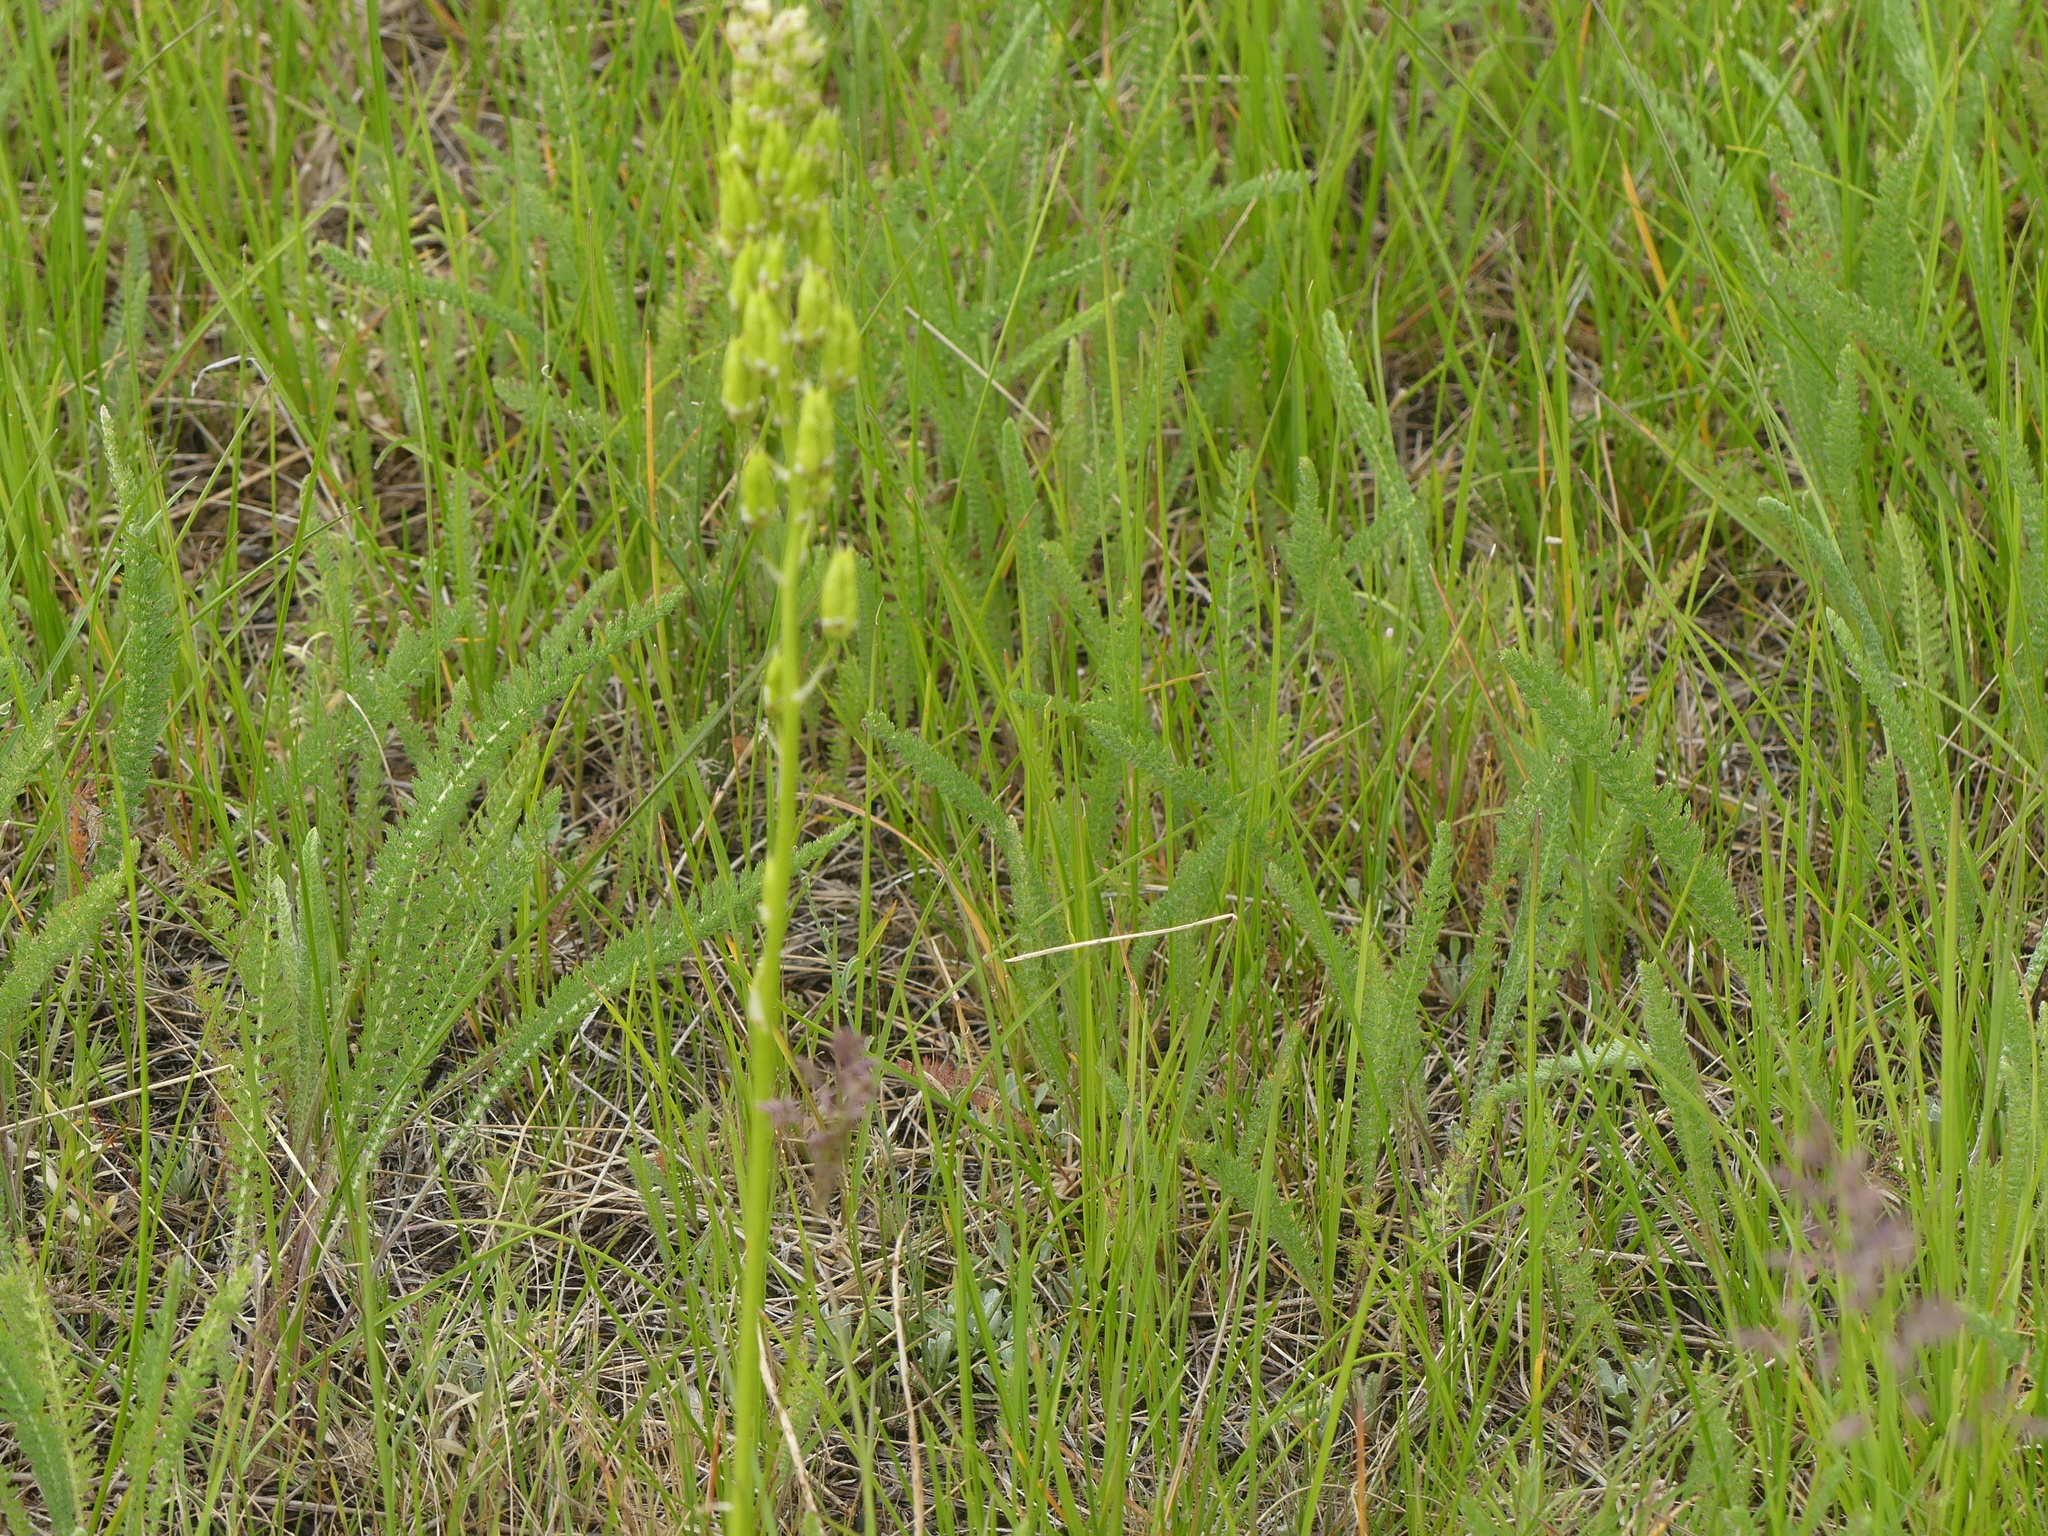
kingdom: Plantae
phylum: Tracheophyta
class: Liliopsida
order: Liliales
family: Melanthiaceae
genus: Toxicoscordion
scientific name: Toxicoscordion venenosum
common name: Meadow death camas
